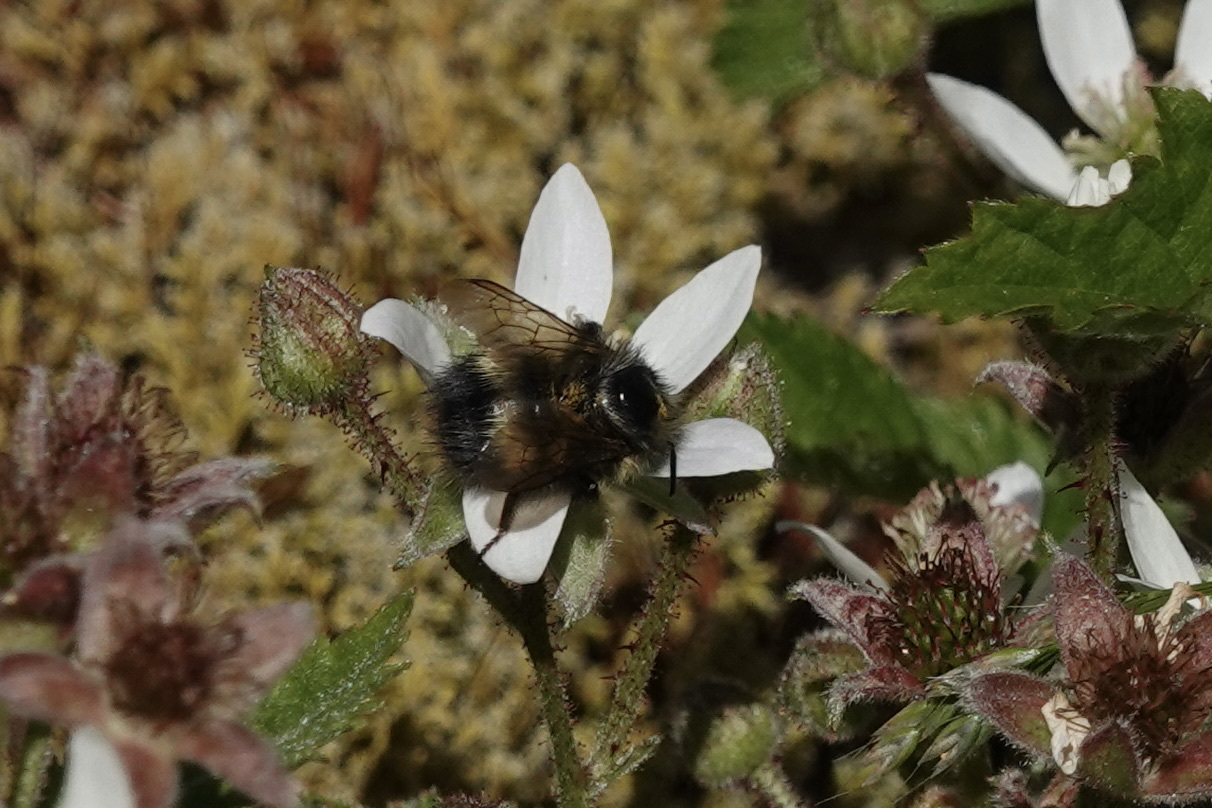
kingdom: Animalia
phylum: Arthropoda
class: Insecta
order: Hymenoptera
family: Apidae
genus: Bombus
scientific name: Bombus sitkensis
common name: Sitka bumble bee
